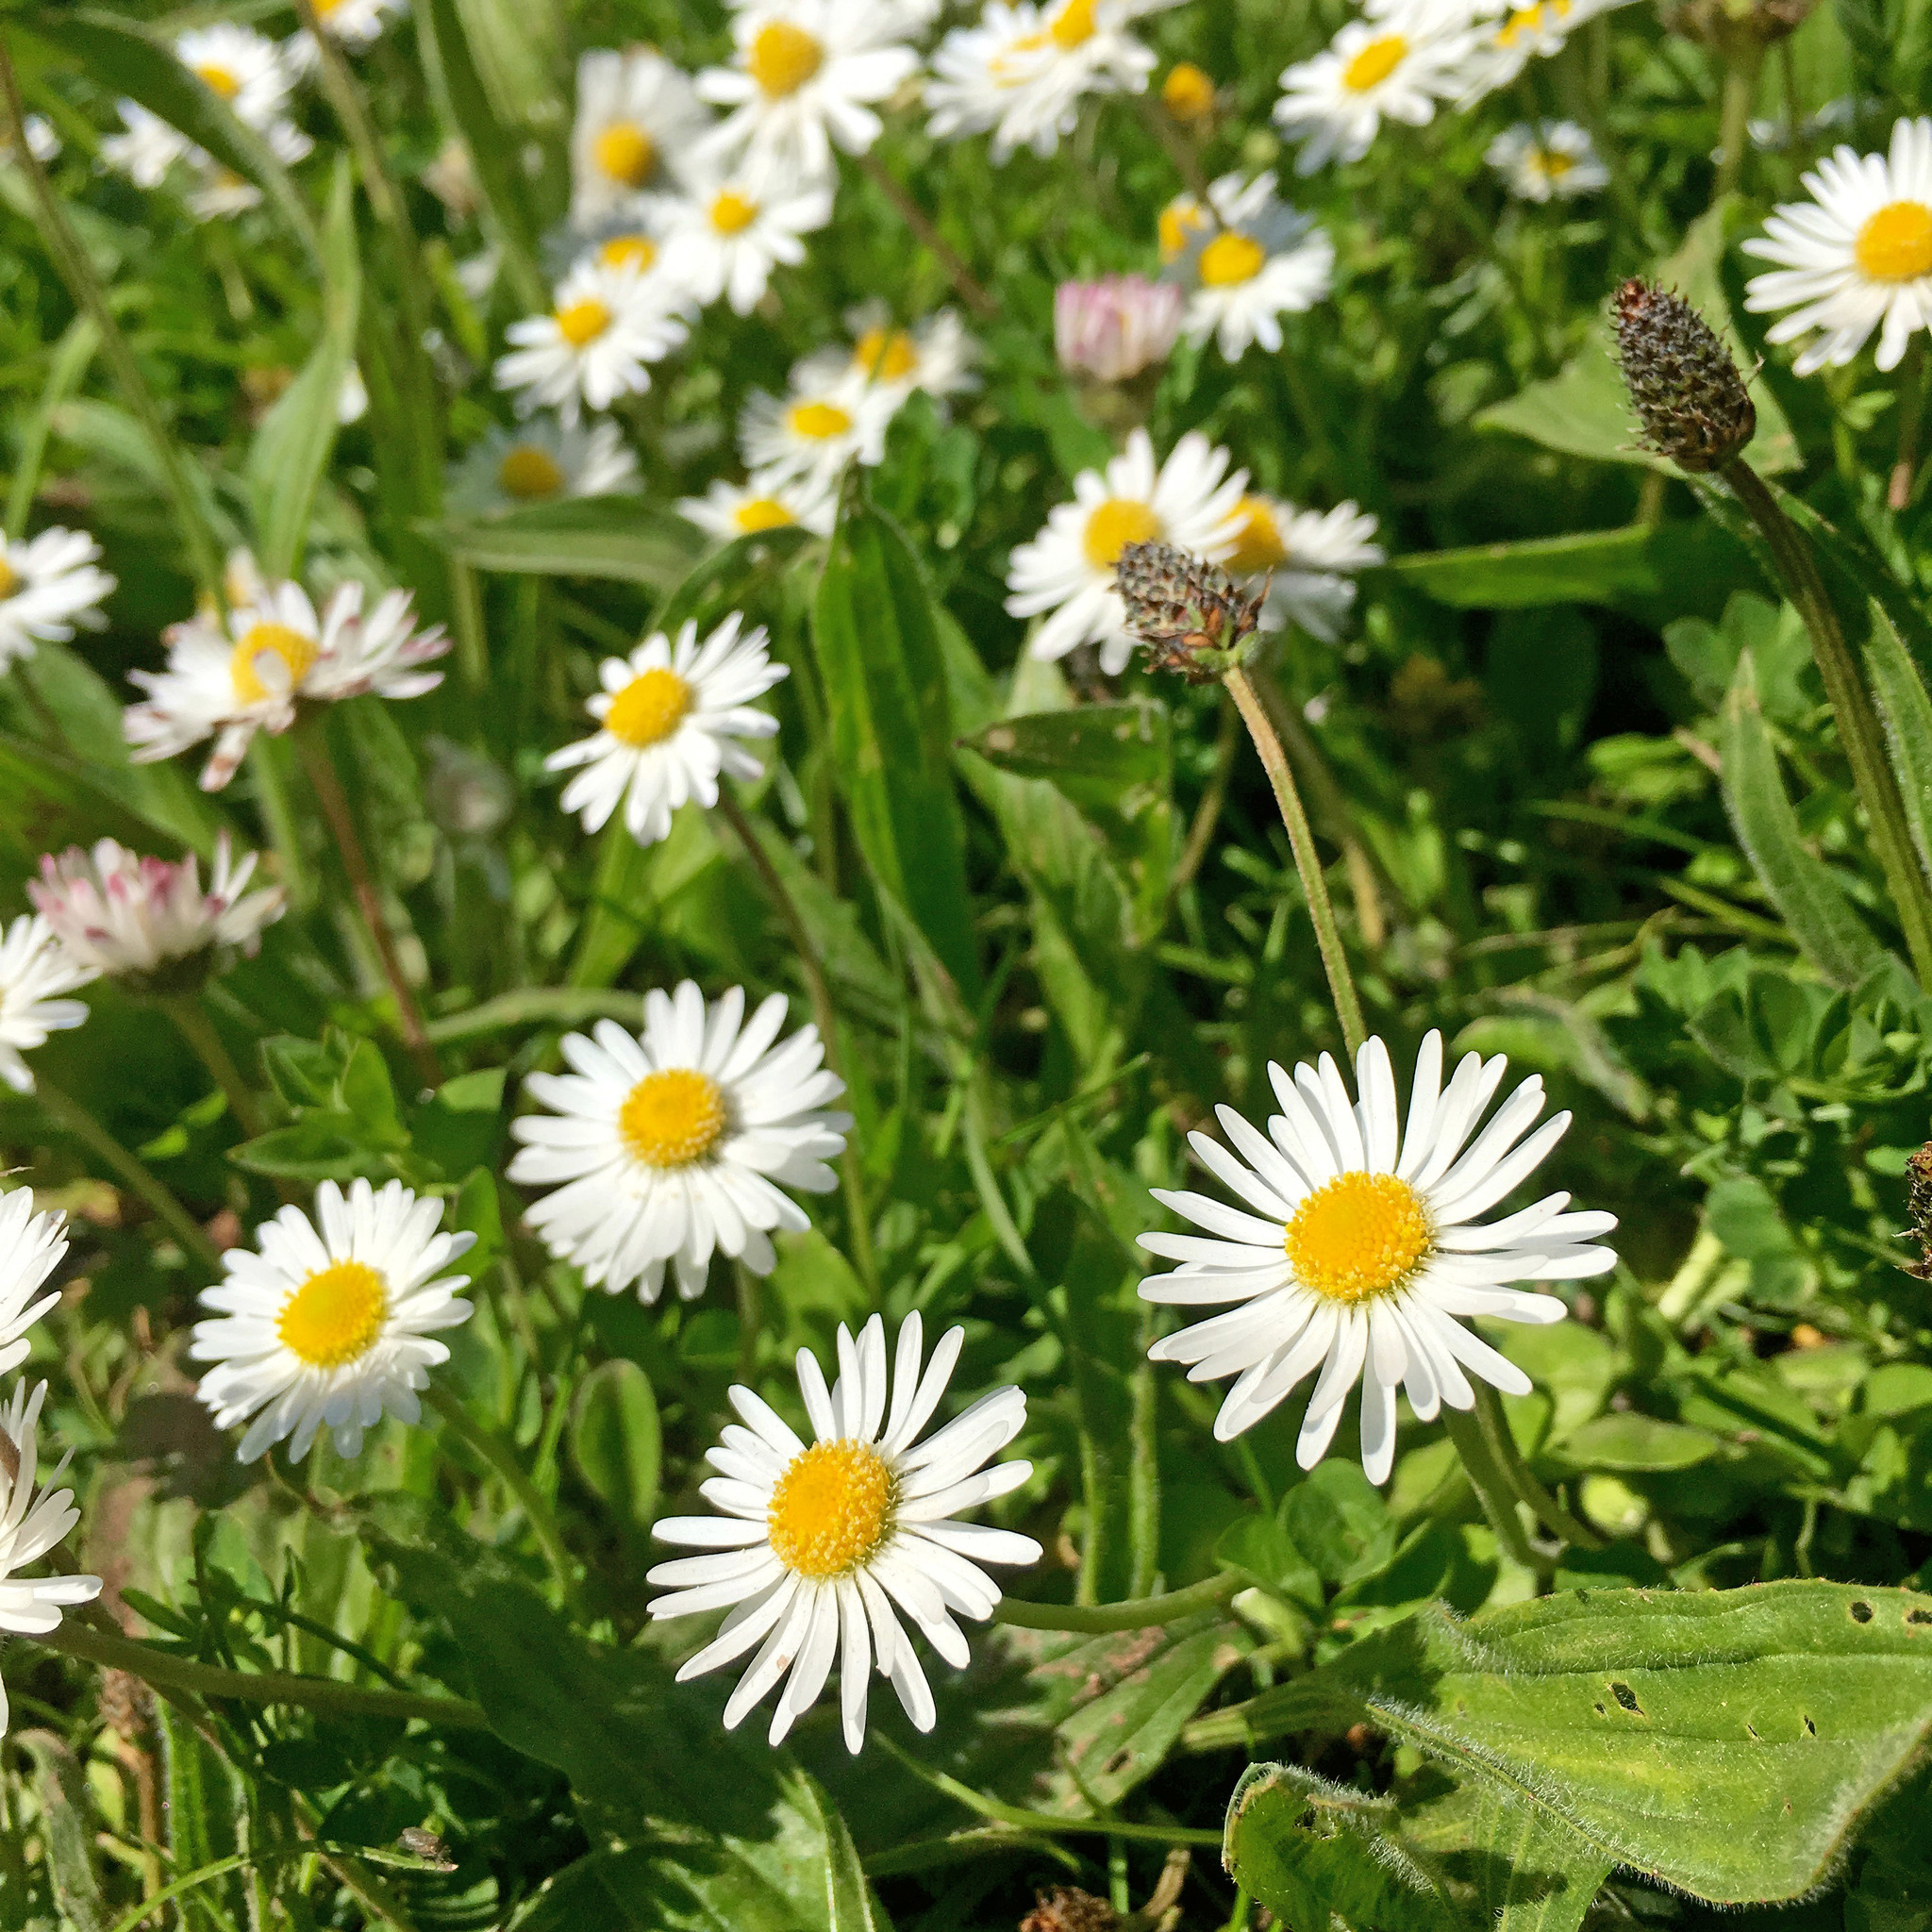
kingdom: Plantae
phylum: Tracheophyta
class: Magnoliopsida
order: Asterales
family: Asteraceae
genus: Bellis
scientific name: Bellis perennis
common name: Lawndaisy
